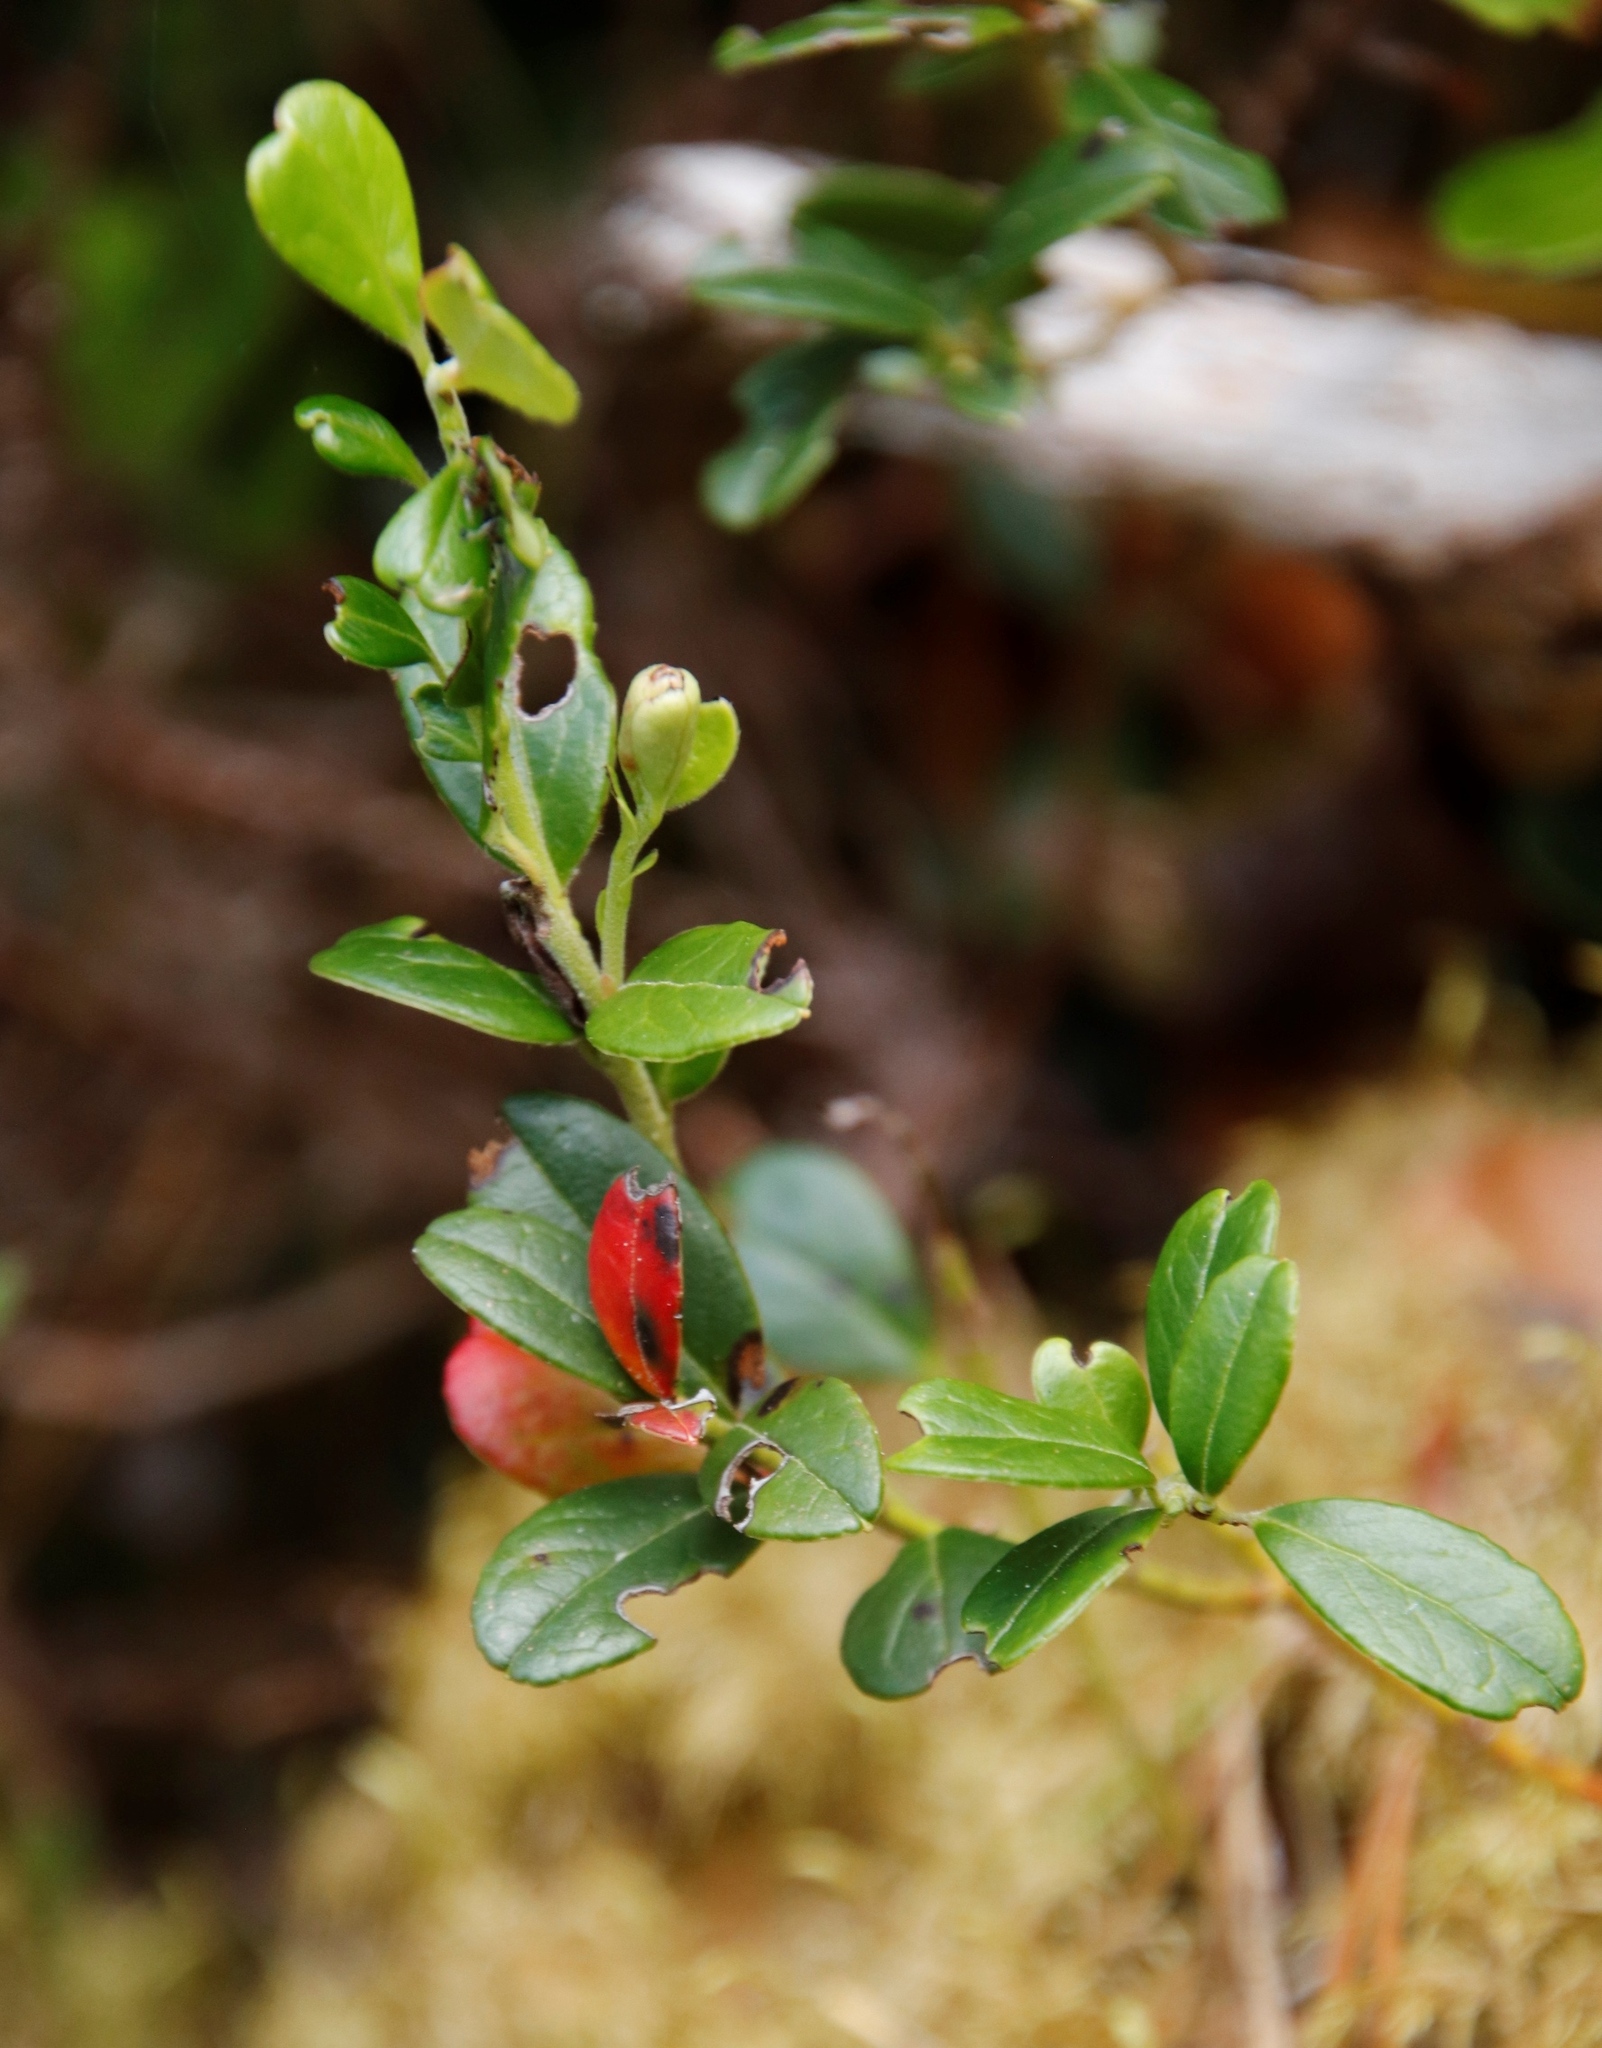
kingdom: Plantae
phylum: Tracheophyta
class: Magnoliopsida
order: Ericales
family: Ericaceae
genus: Vaccinium
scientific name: Vaccinium vitis-idaea
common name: Cowberry
